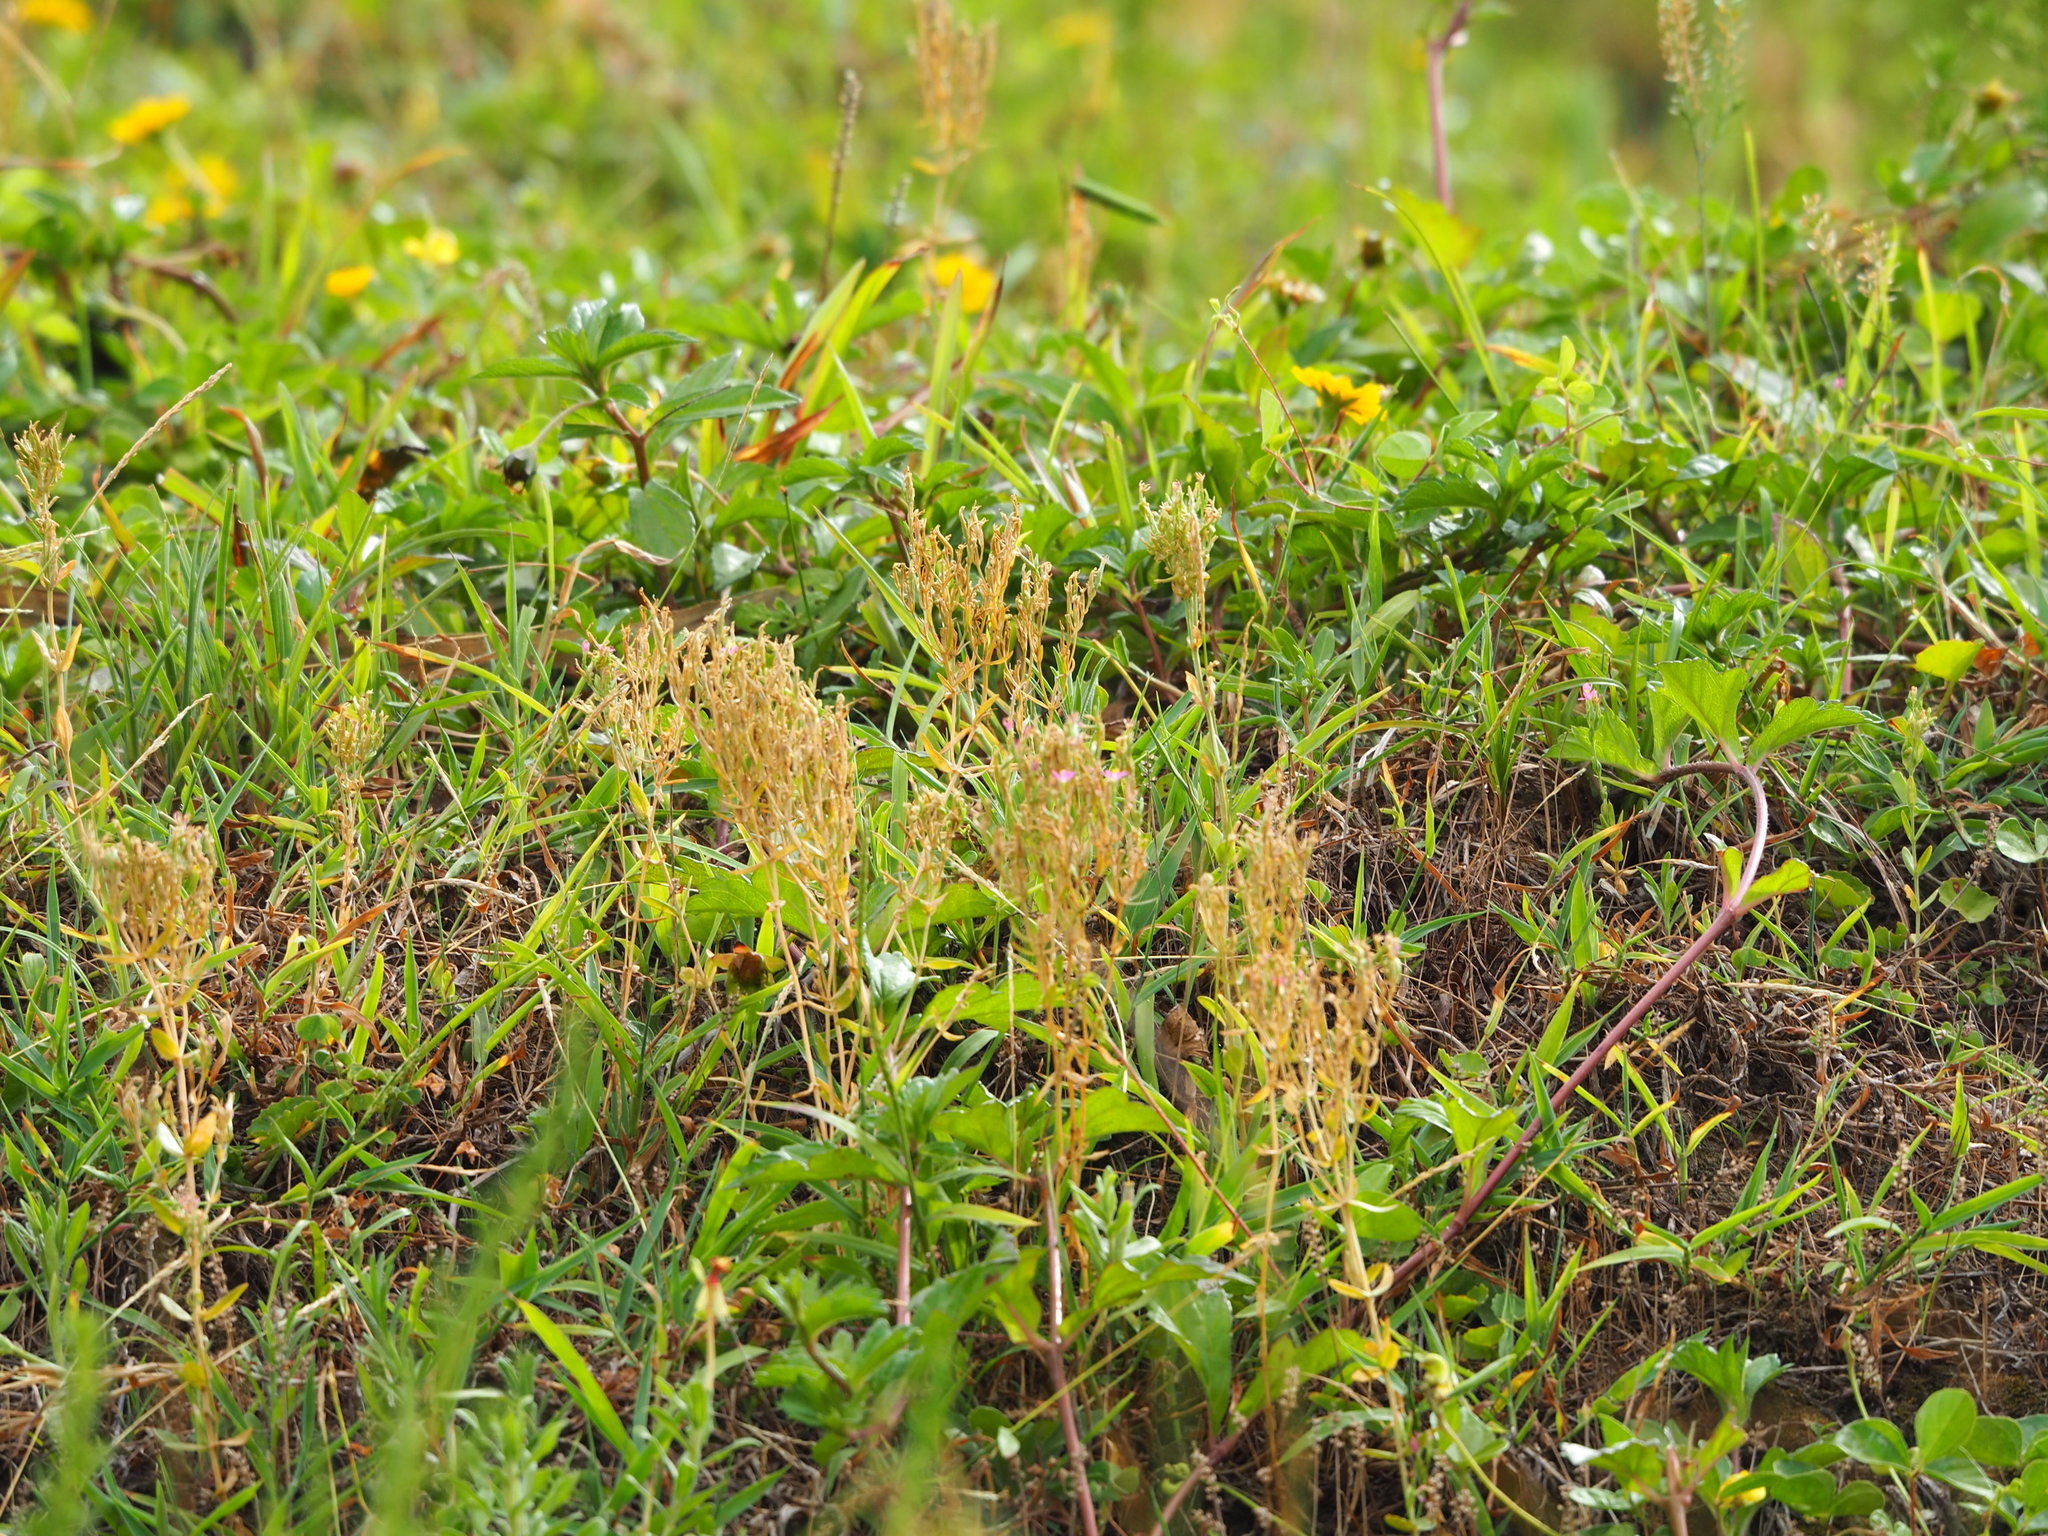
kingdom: Plantae
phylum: Tracheophyta
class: Magnoliopsida
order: Gentianales
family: Gentianaceae
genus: Centaurium
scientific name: Centaurium pulchellum
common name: Lesser centaury
